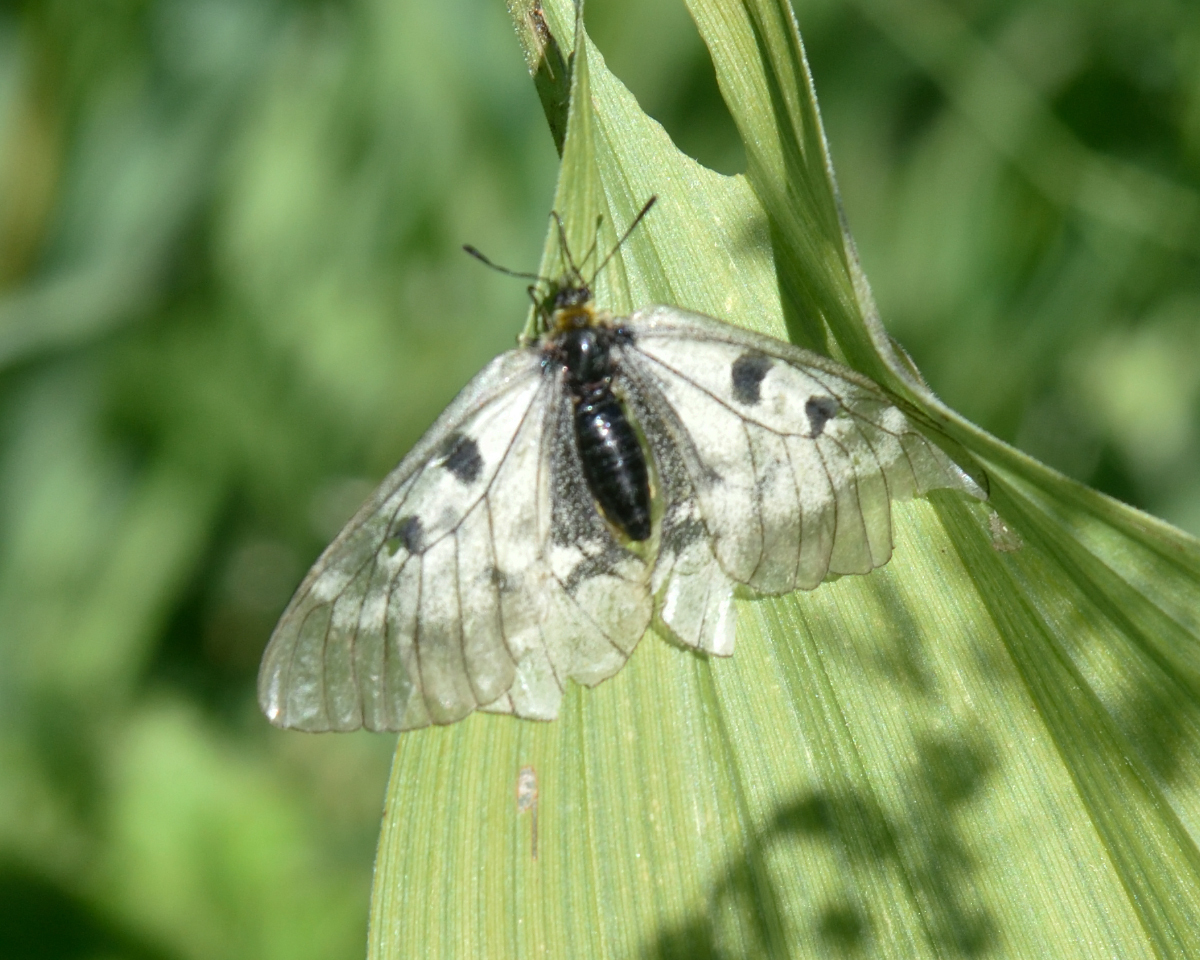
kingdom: Animalia
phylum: Arthropoda
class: Insecta
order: Lepidoptera
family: Papilionidae
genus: Parnassius
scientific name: Parnassius mnemosyne
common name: Clouded apollo
